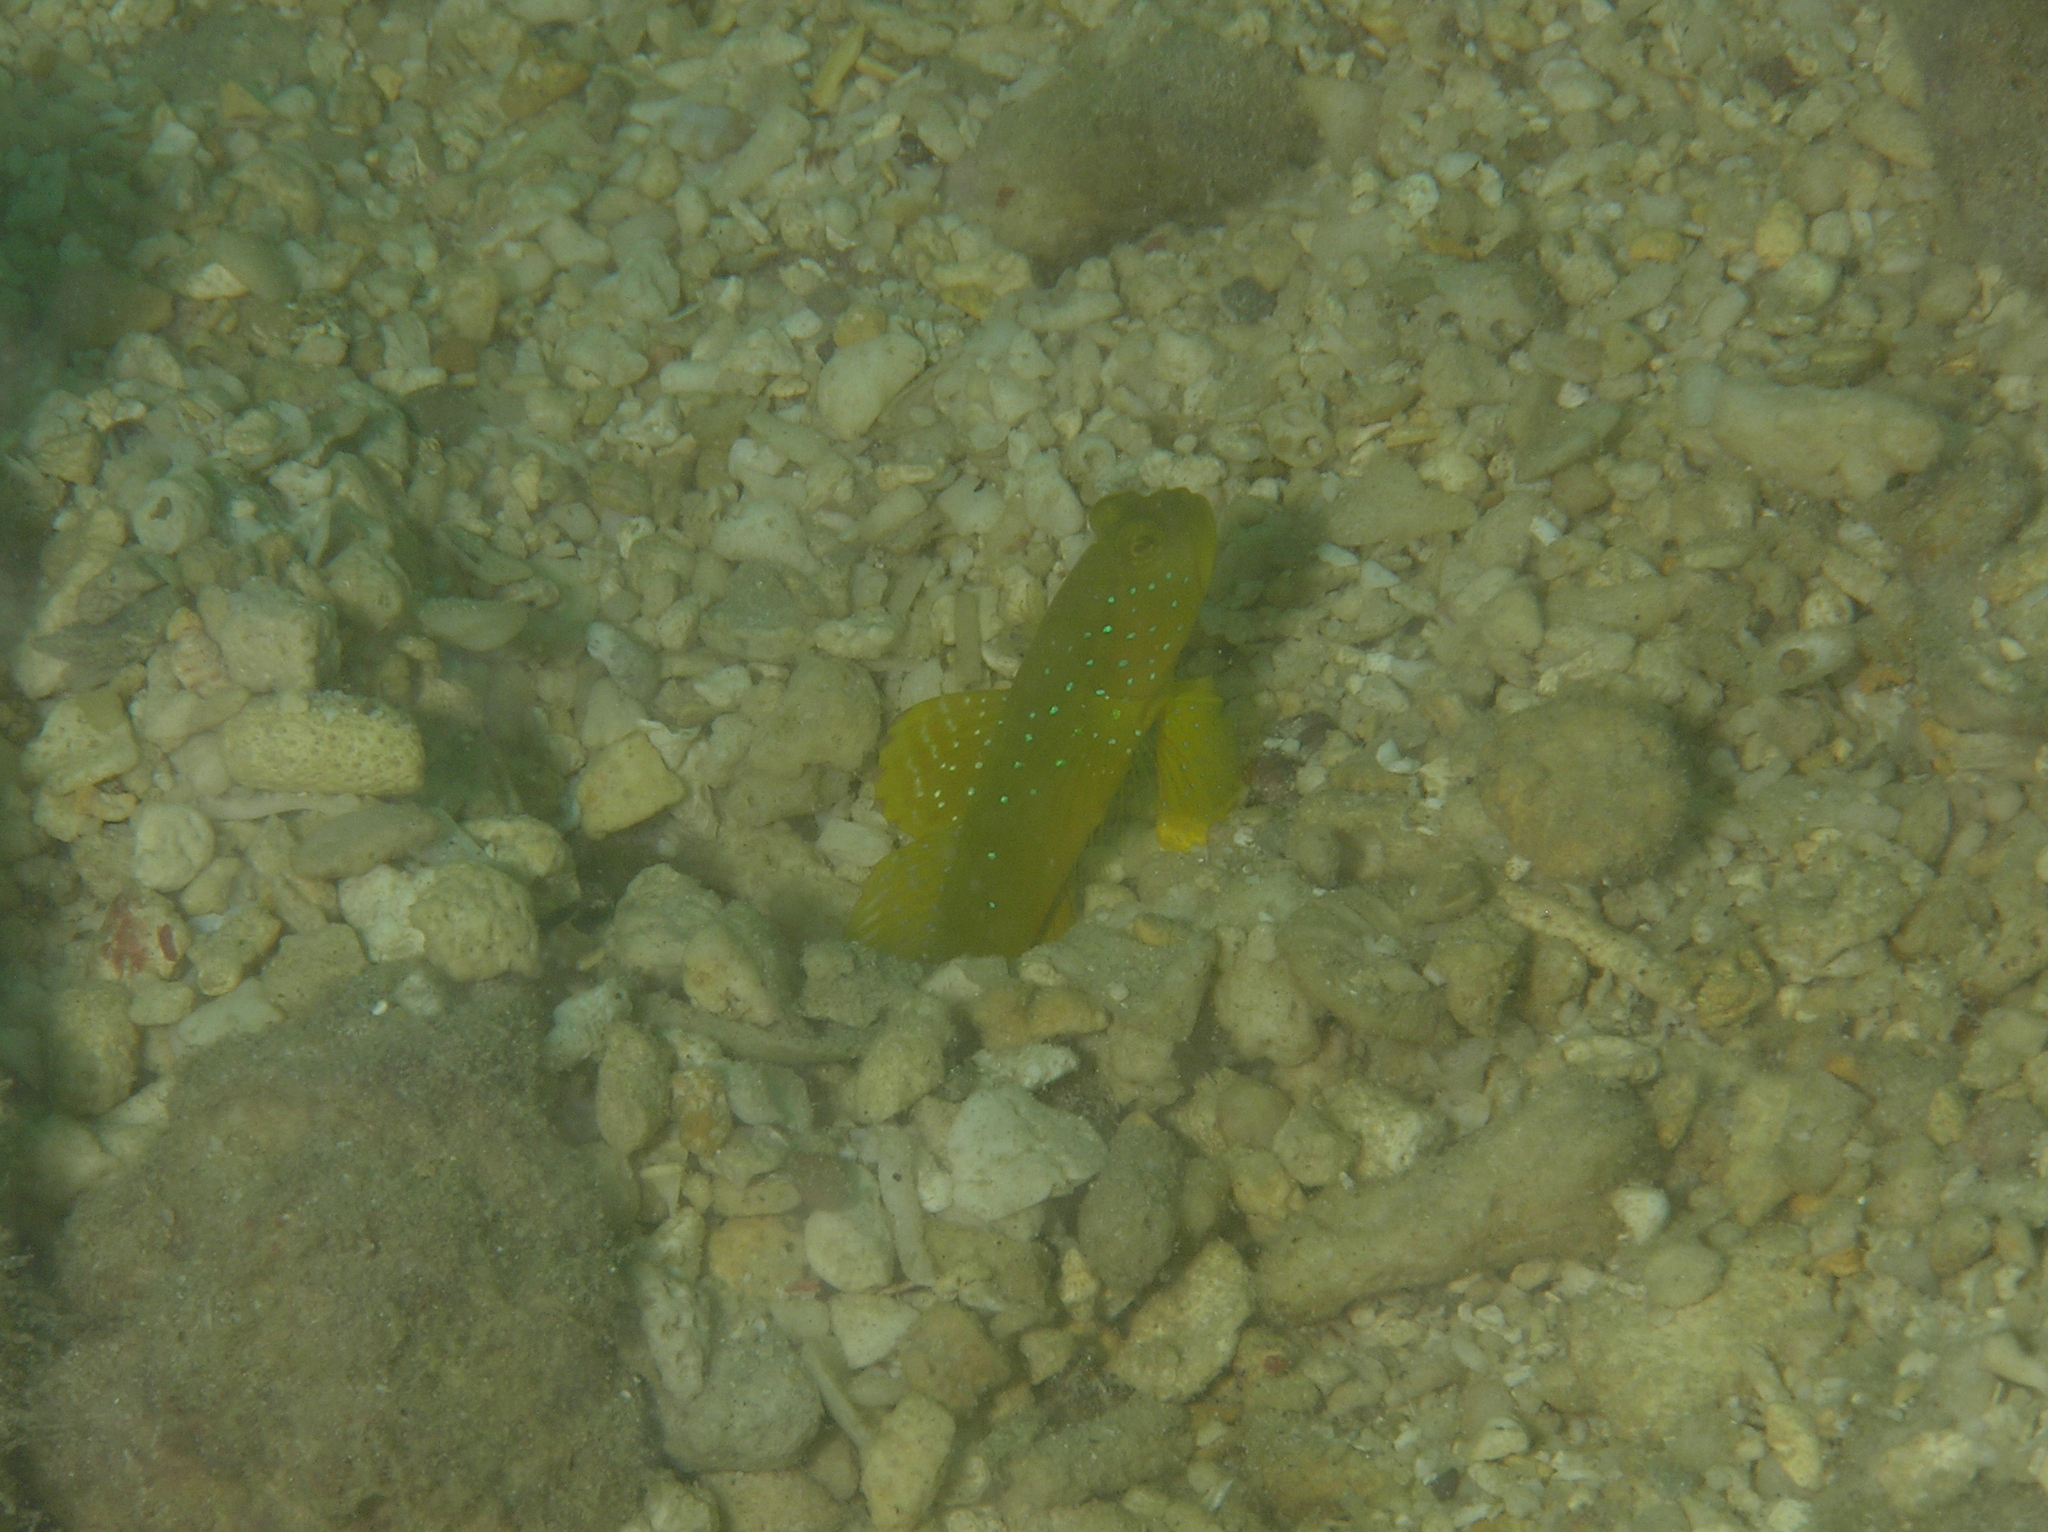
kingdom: Animalia
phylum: Chordata
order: Perciformes
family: Gobiidae
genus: Cryptocentrus
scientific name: Cryptocentrus cinctus
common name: Yellow shrimp goby
